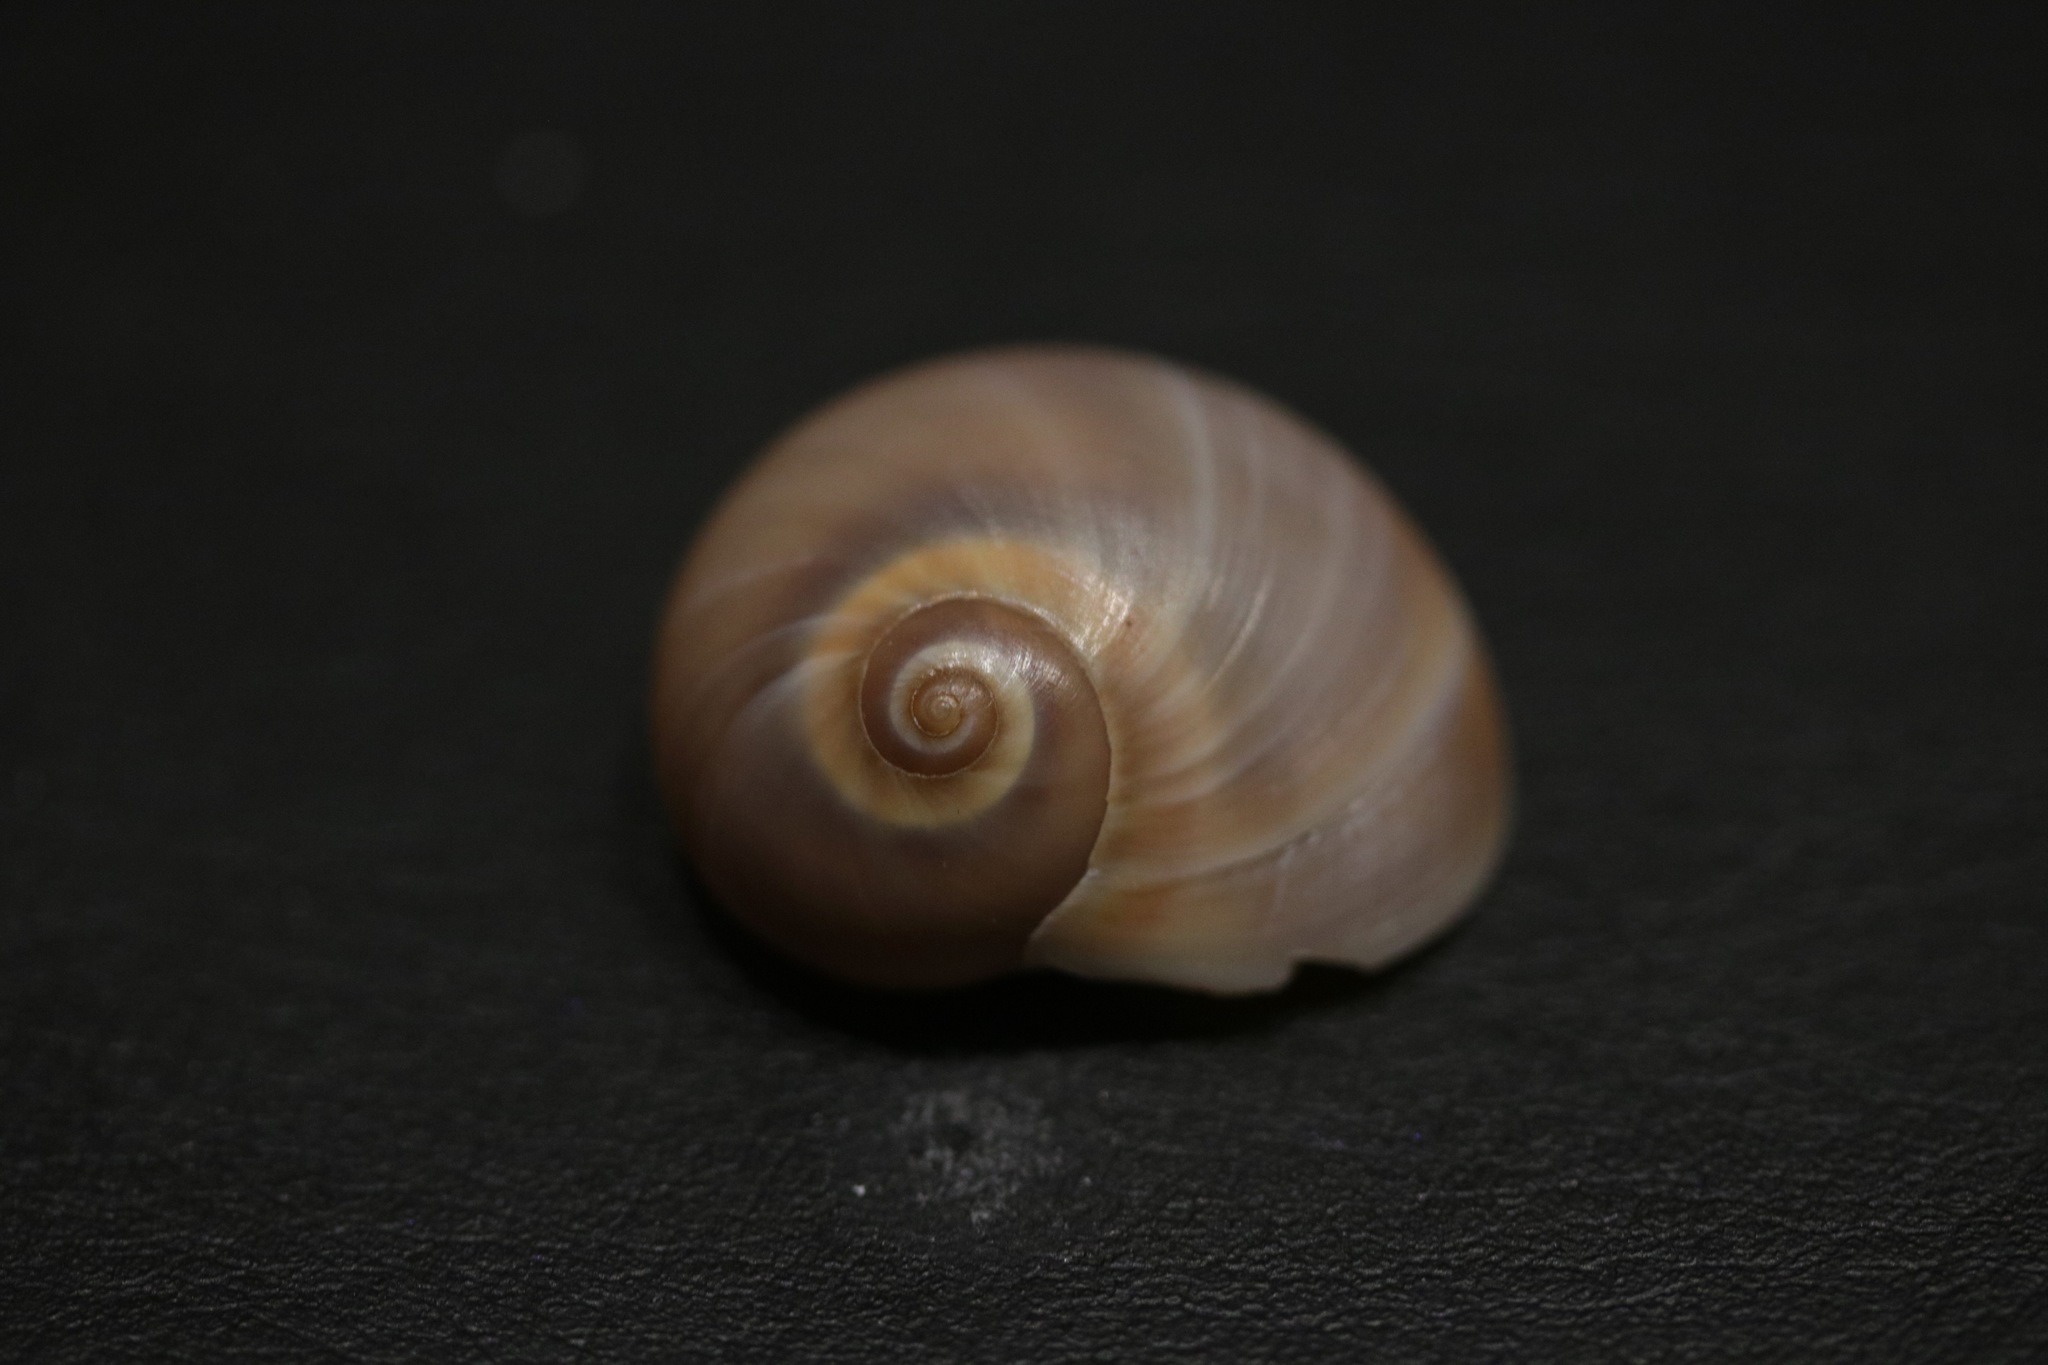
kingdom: Animalia
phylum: Mollusca
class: Gastropoda
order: Littorinimorpha
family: Naticidae
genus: Neverita
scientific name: Neverita josephinia
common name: Josephine's moonsnail
